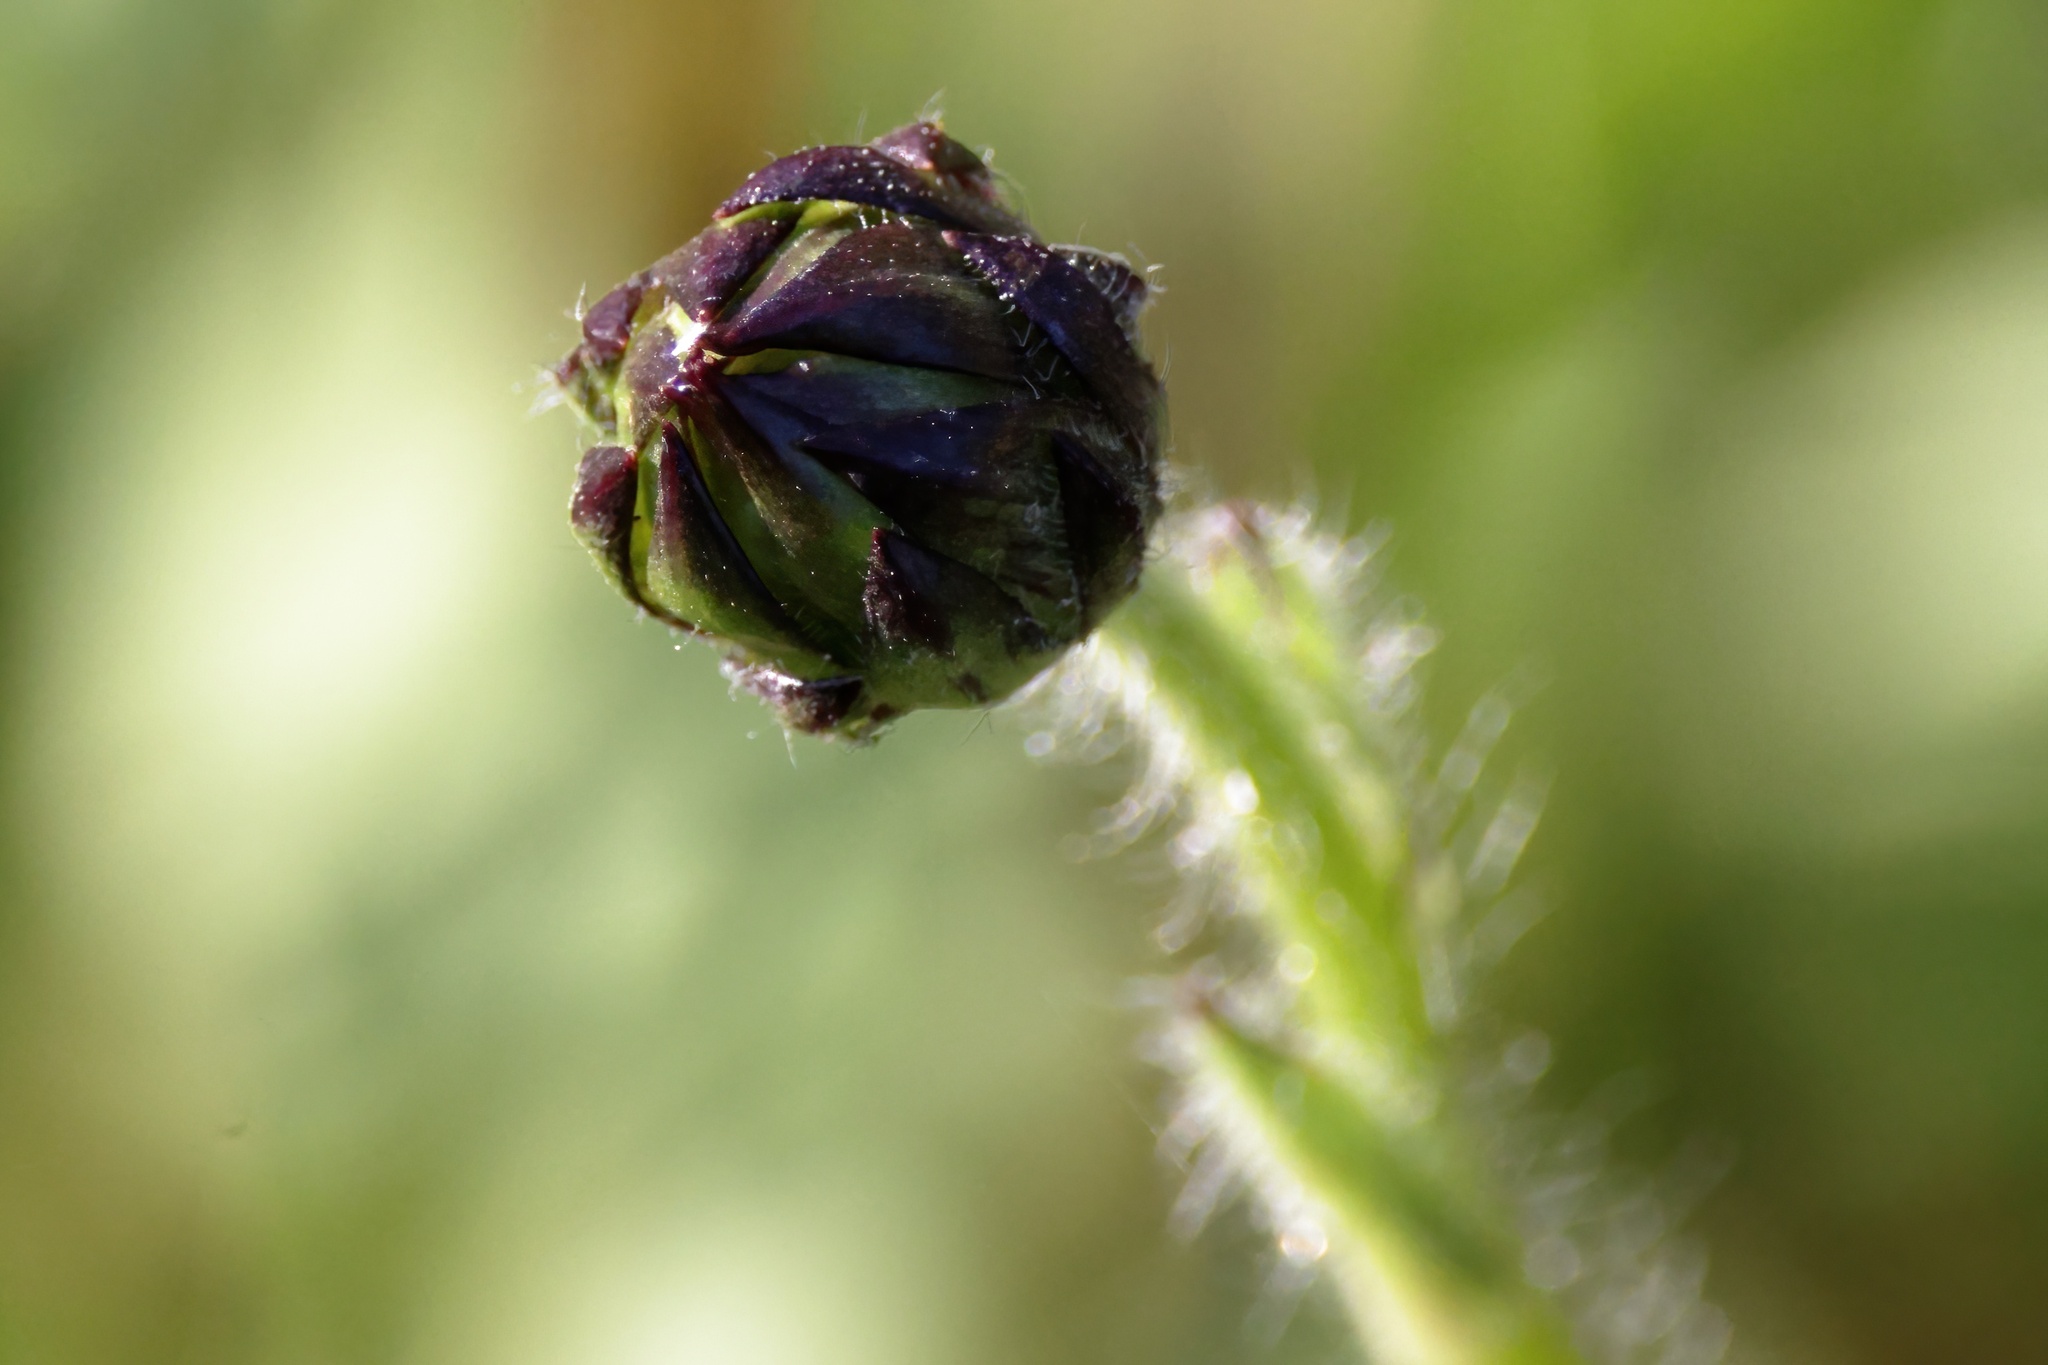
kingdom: Plantae
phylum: Tracheophyta
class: Magnoliopsida
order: Asterales
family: Asteraceae
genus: Helianthus
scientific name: Helianthus radula
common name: Pineland sunflower
